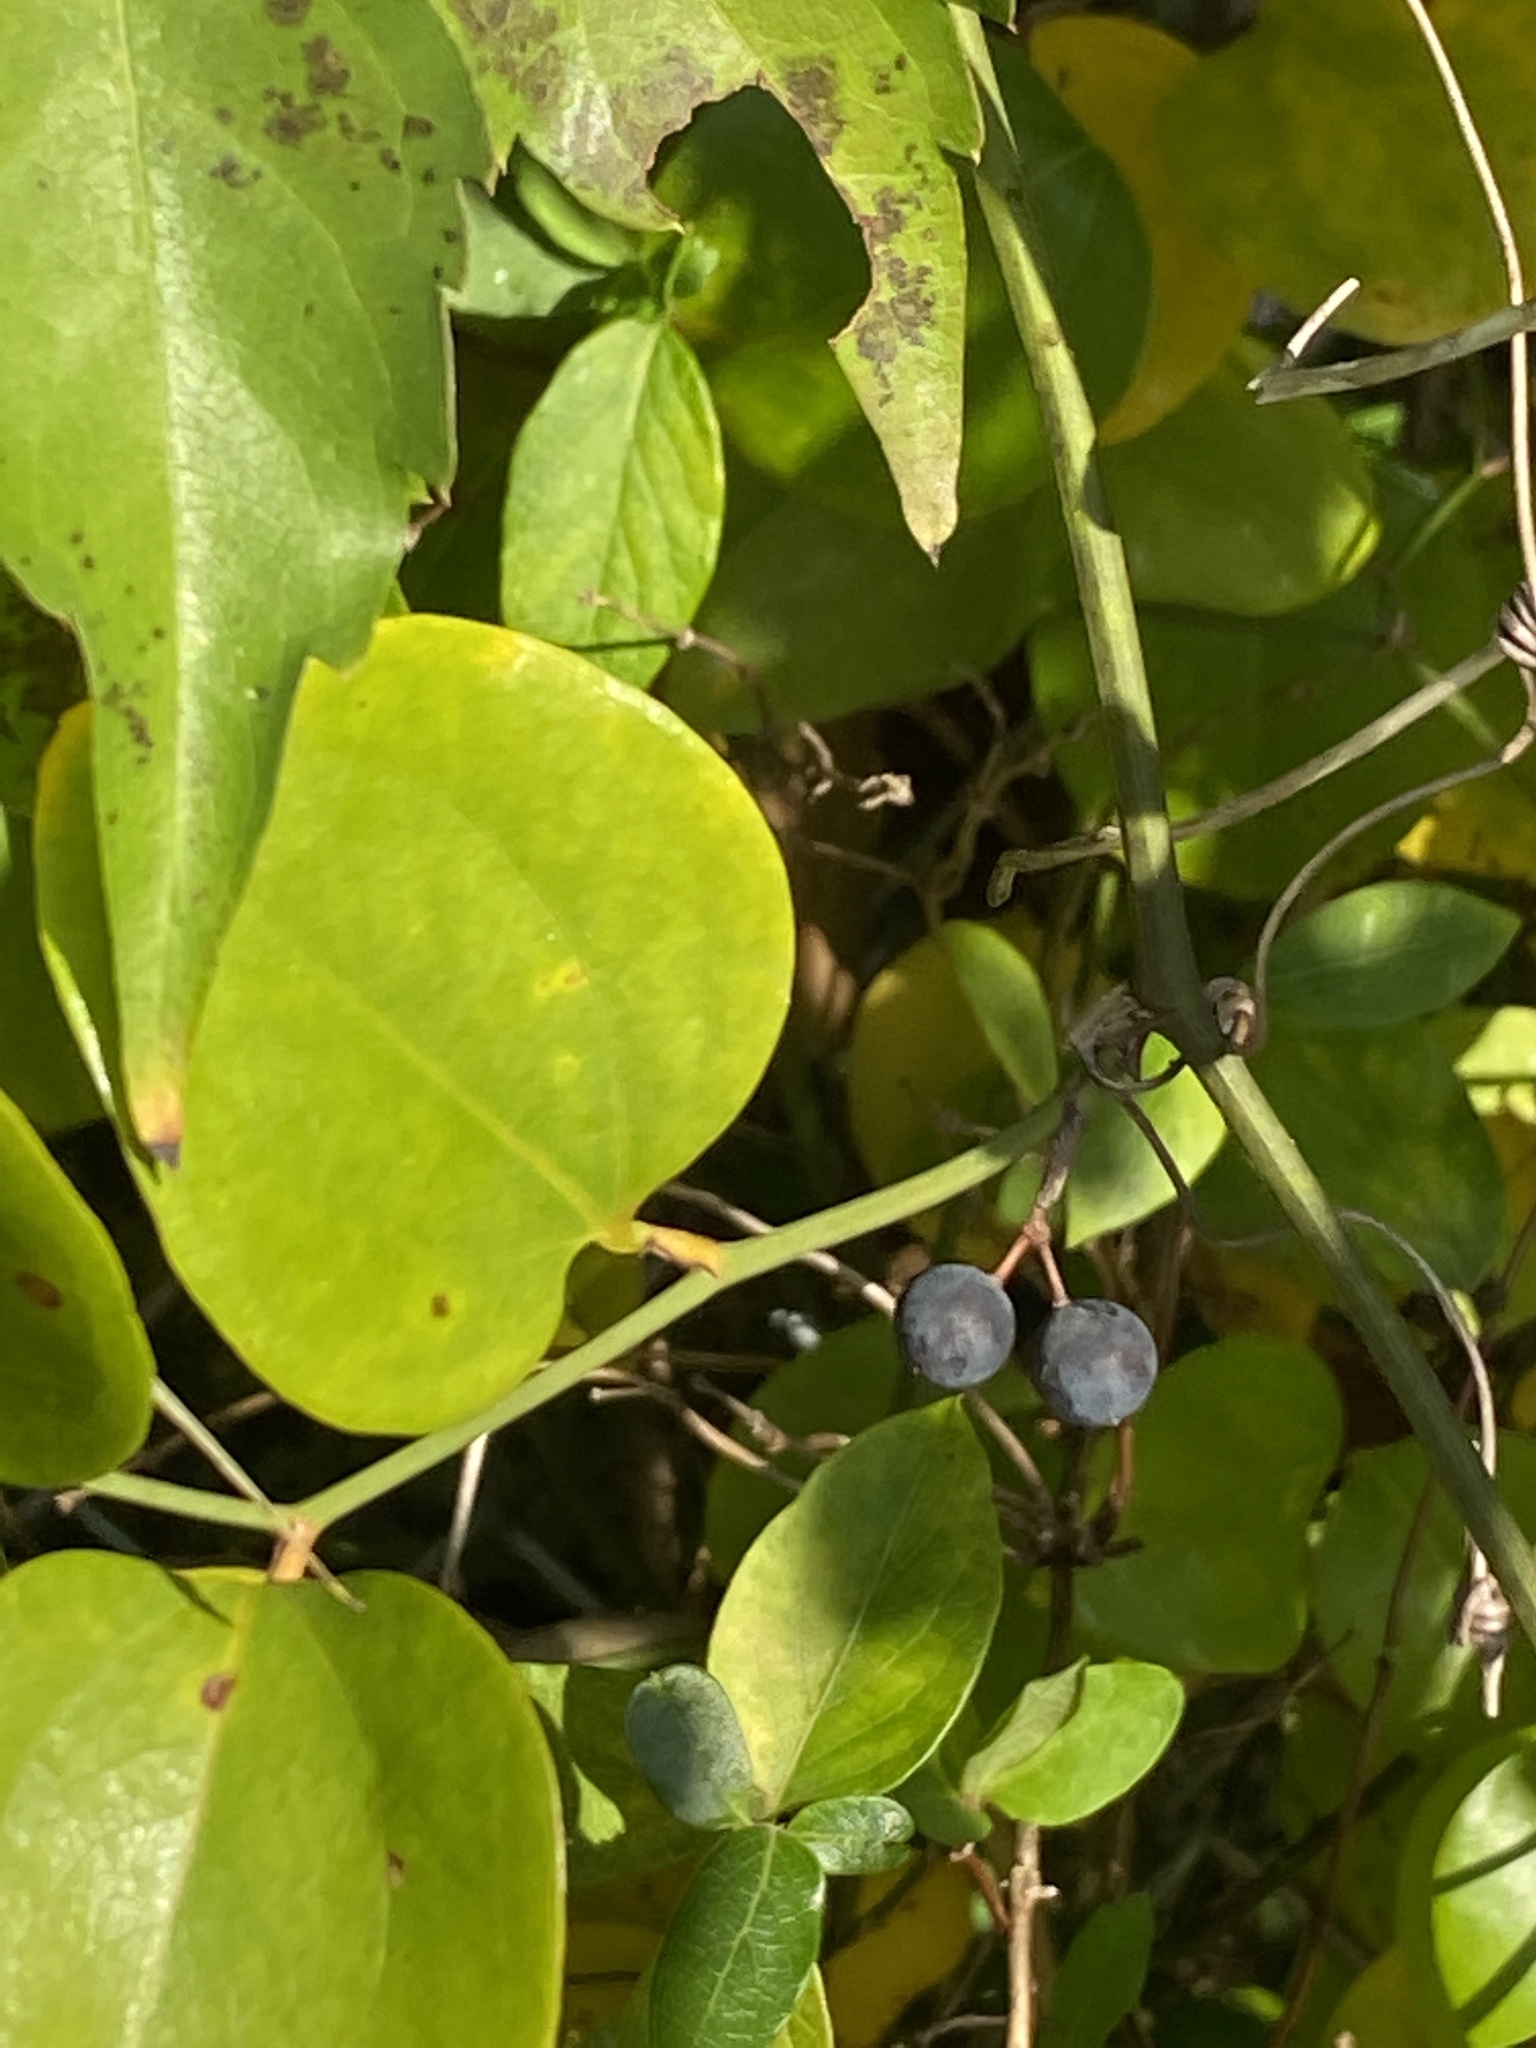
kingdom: Plantae
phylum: Tracheophyta
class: Liliopsida
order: Liliales
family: Smilacaceae
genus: Smilax
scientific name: Smilax rotundifolia
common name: Bullbriar
